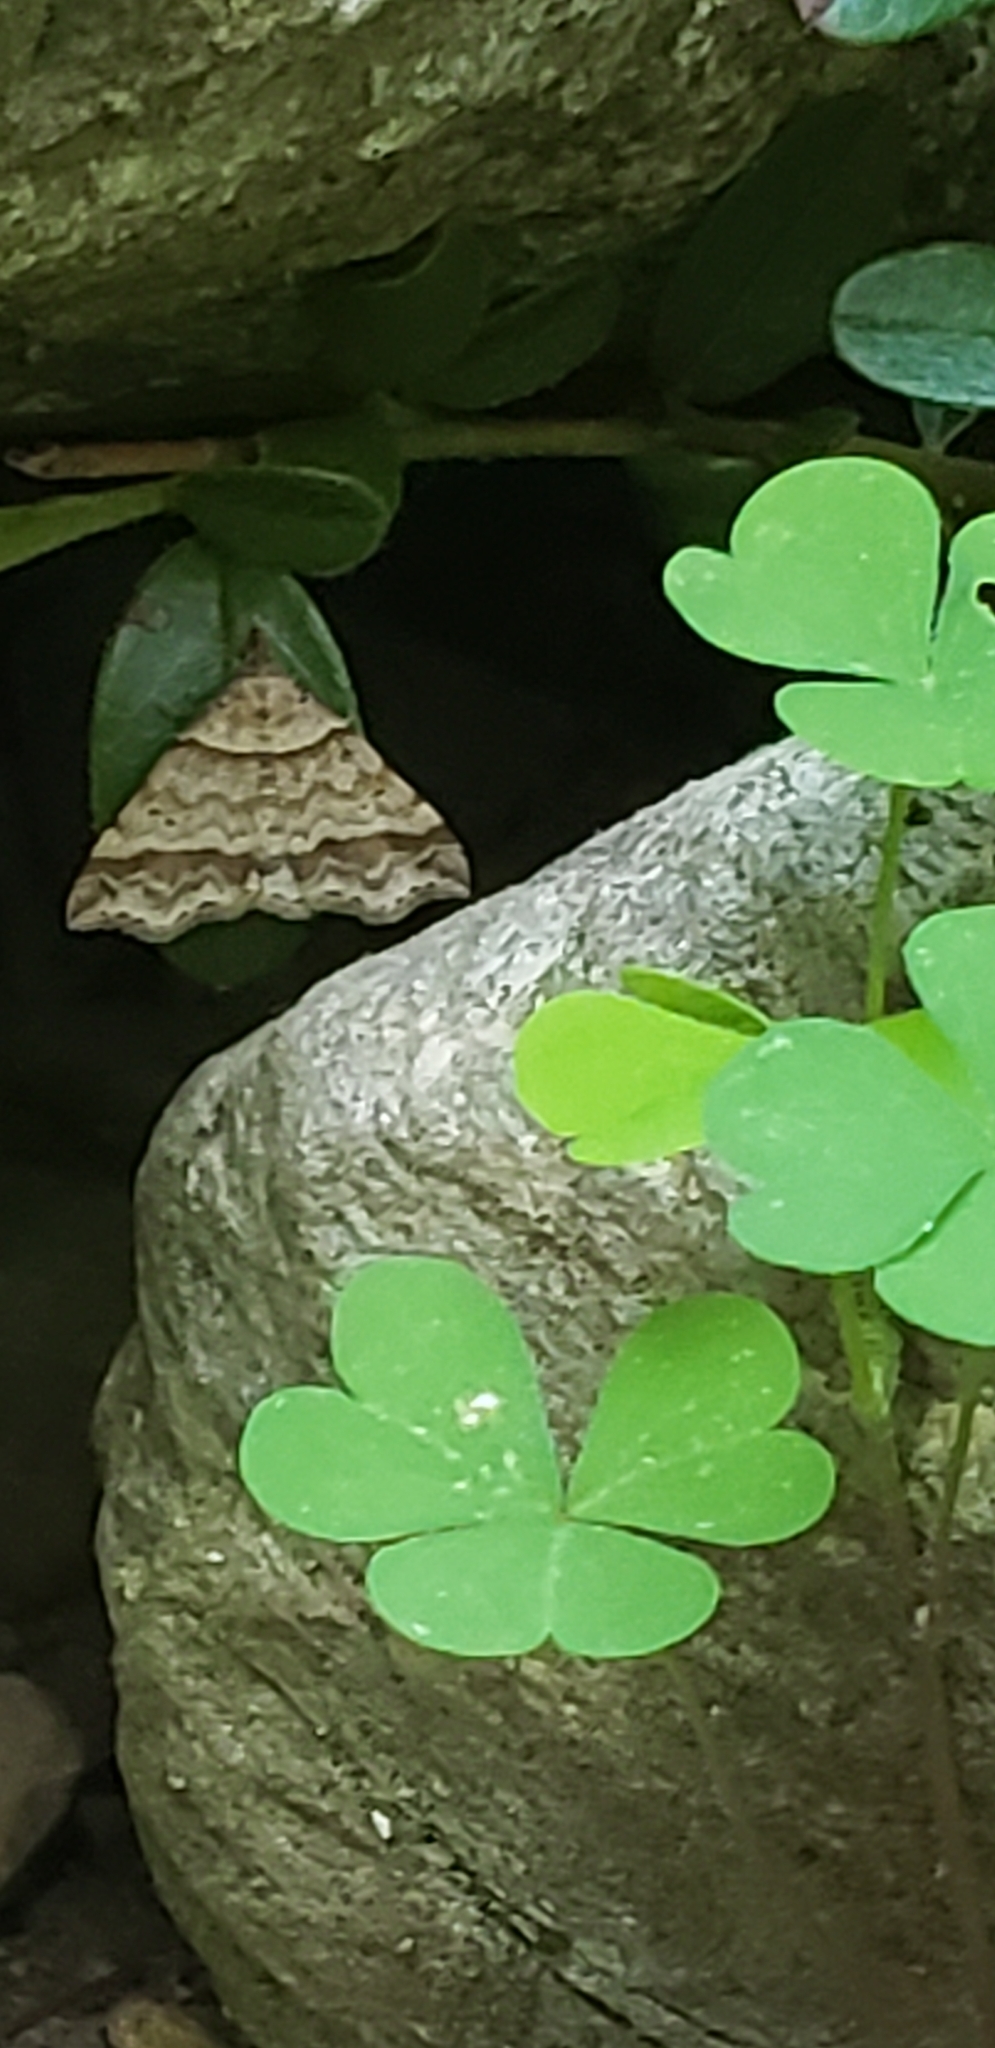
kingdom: Animalia
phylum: Arthropoda
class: Insecta
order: Lepidoptera
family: Erebidae
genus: Phaeolita
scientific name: Phaeolita pyramusalis
